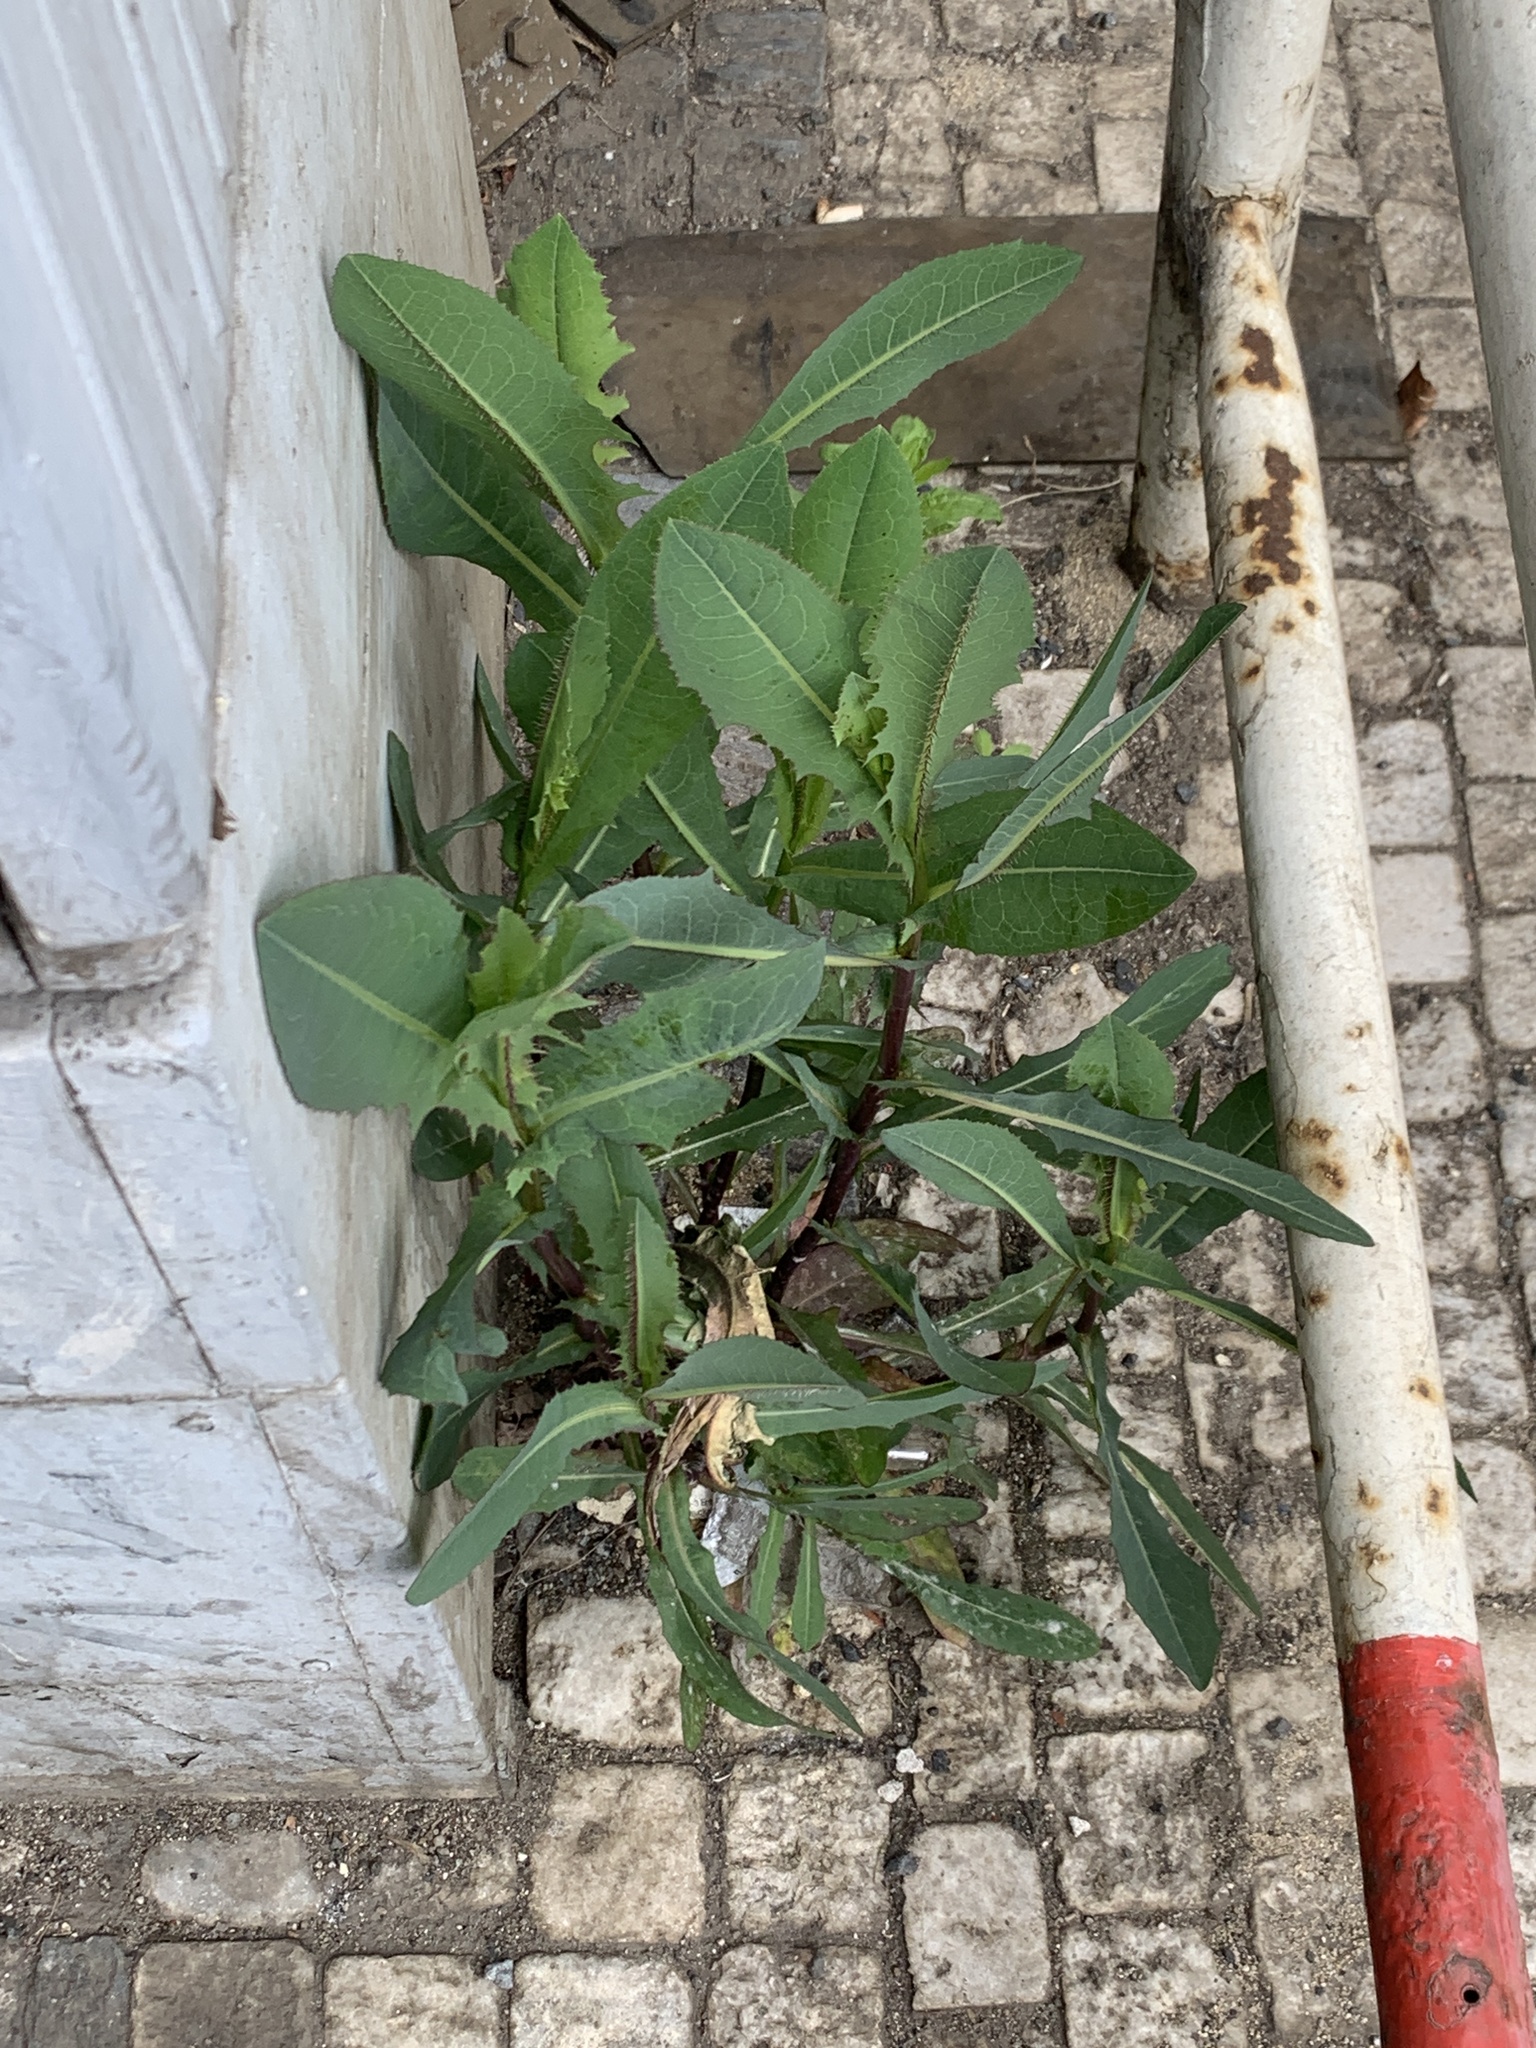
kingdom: Plantae
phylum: Tracheophyta
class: Magnoliopsida
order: Asterales
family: Asteraceae
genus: Lactuca
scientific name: Lactuca serriola
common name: Prickly lettuce
